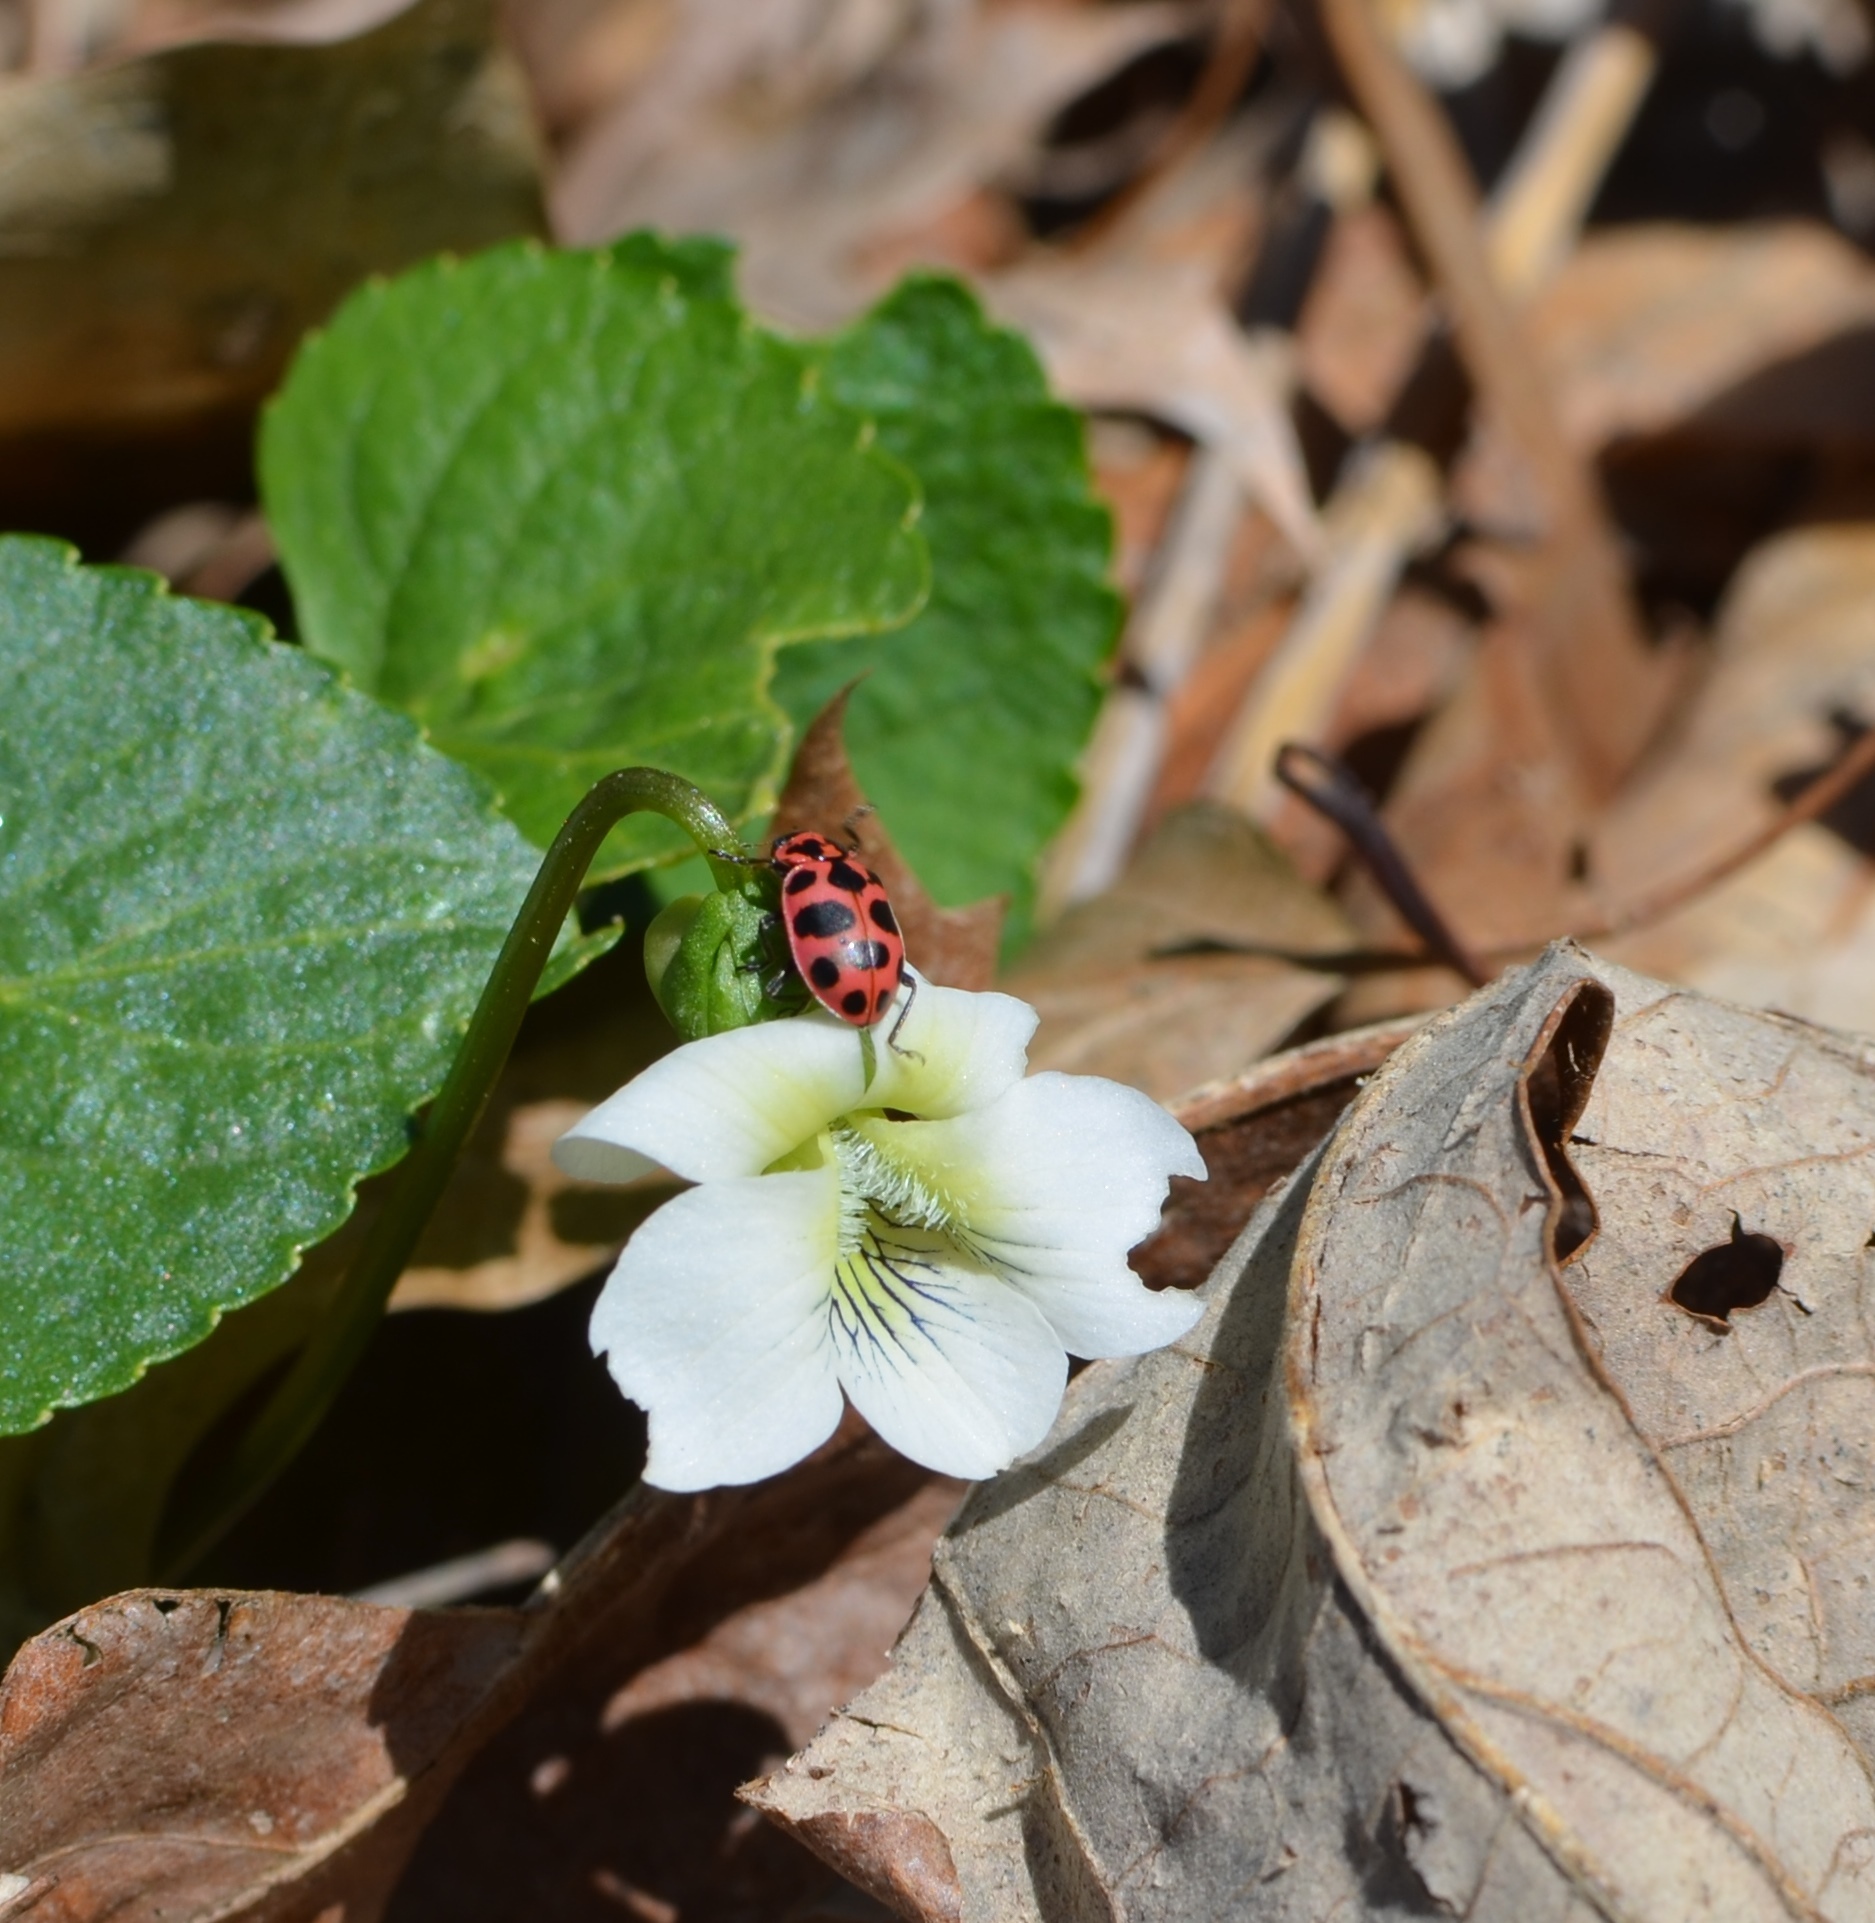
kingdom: Animalia
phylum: Arthropoda
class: Insecta
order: Coleoptera
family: Coccinellidae
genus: Coleomegilla
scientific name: Coleomegilla maculata
